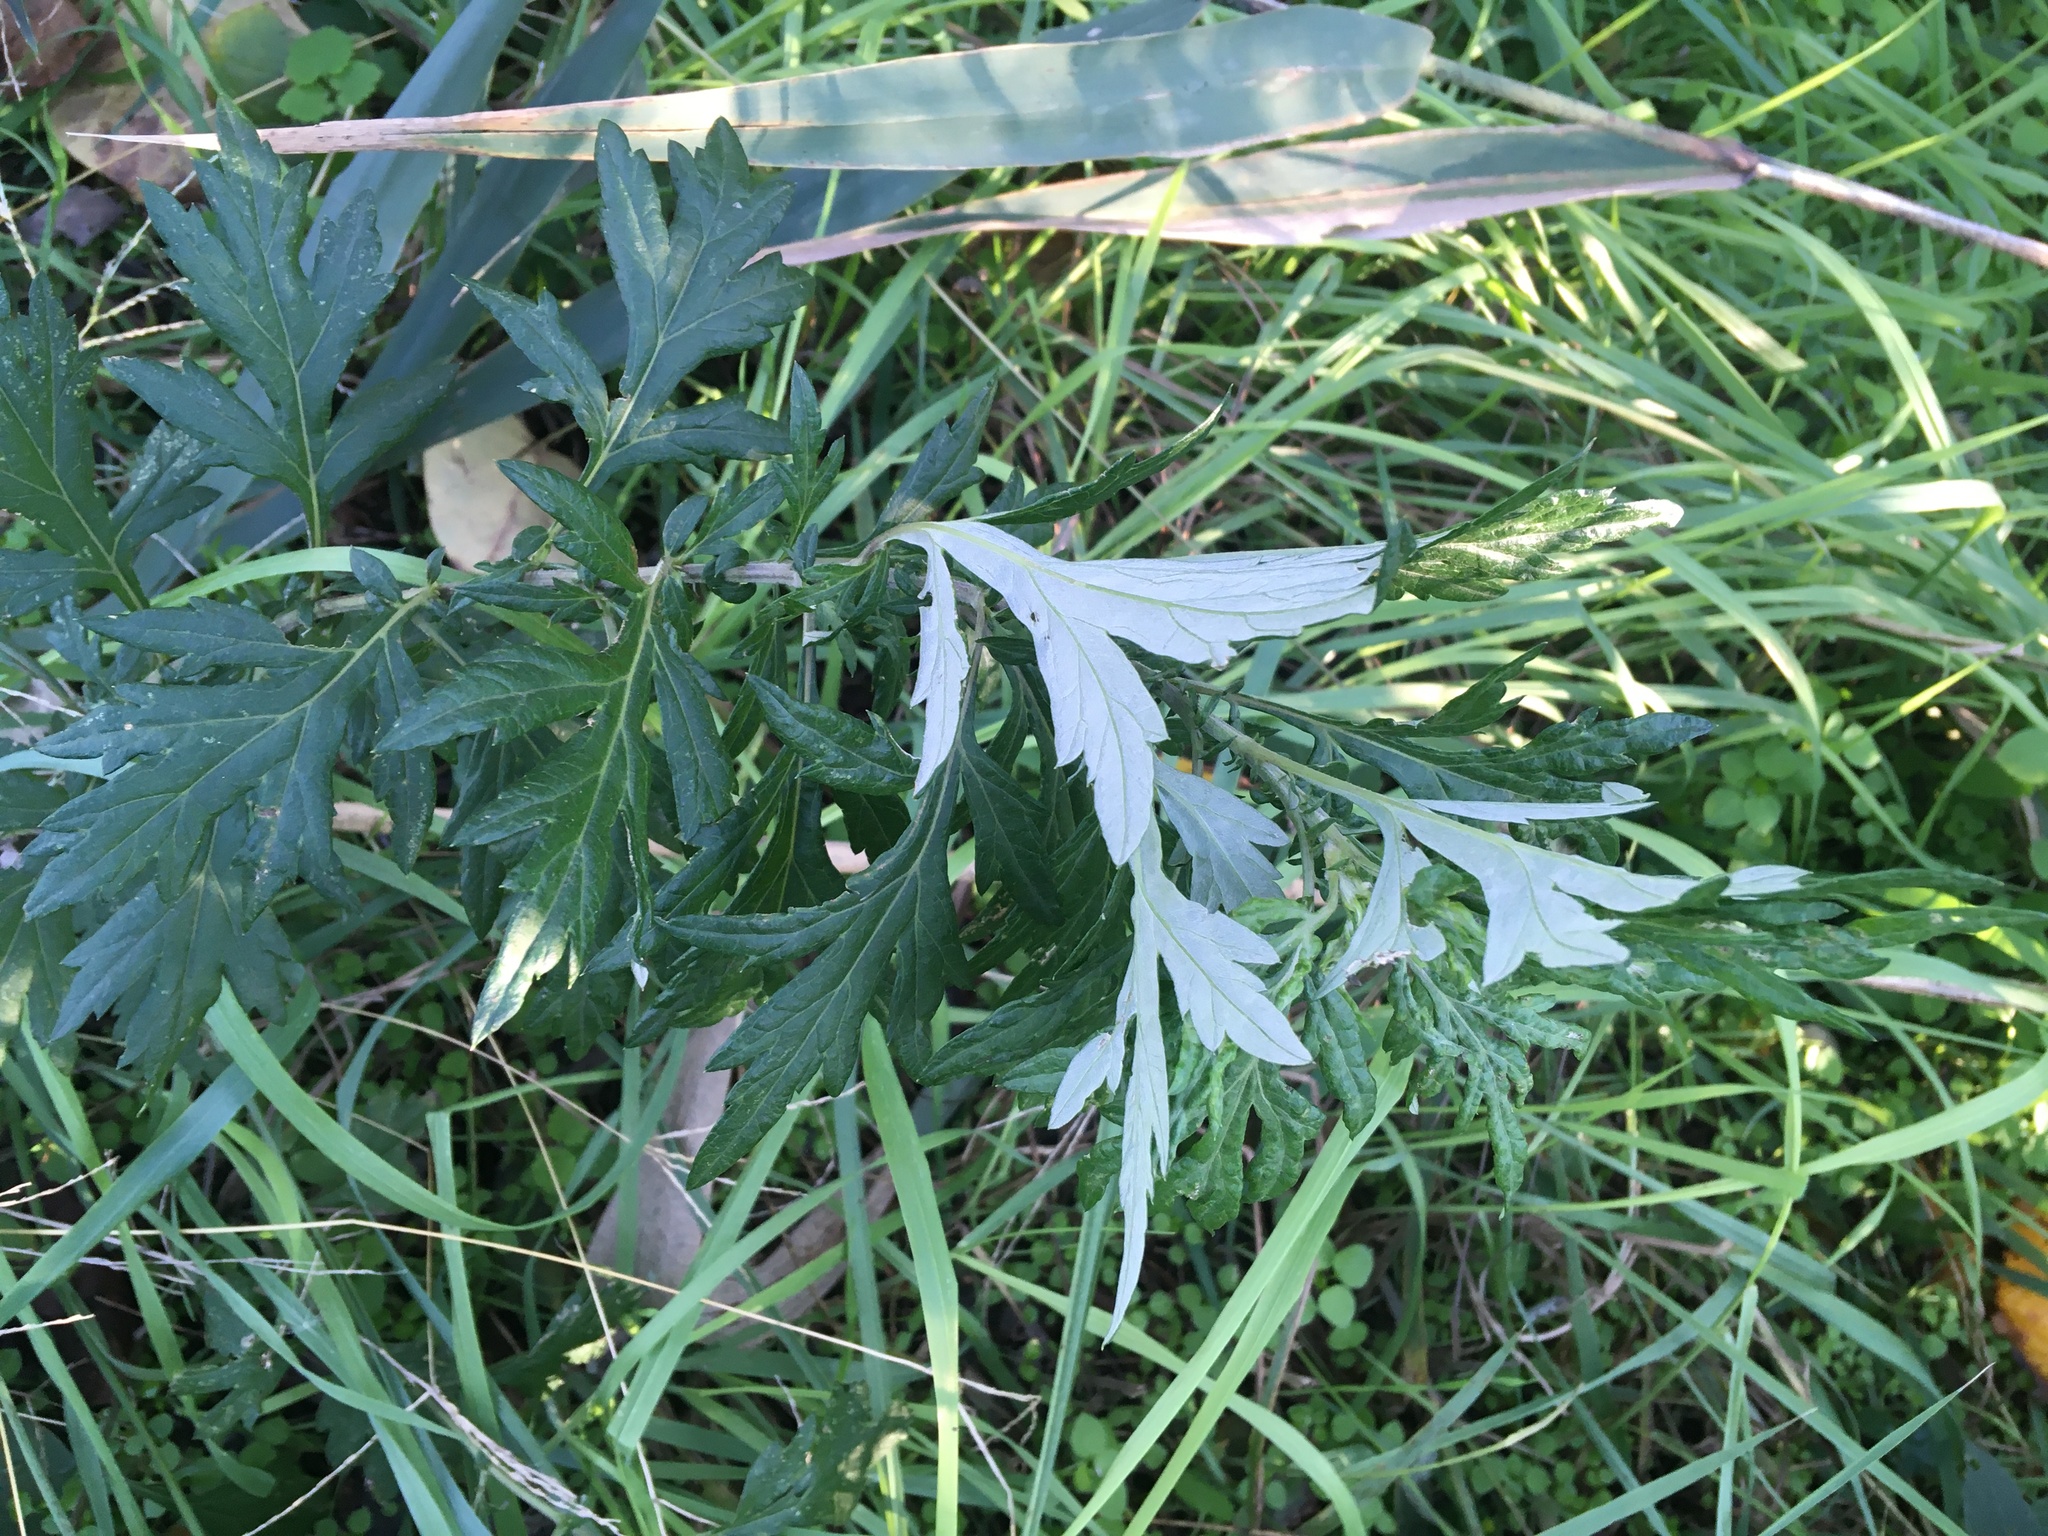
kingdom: Plantae
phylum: Tracheophyta
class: Magnoliopsida
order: Asterales
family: Asteraceae
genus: Artemisia
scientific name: Artemisia vulgaris
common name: Mugwort
